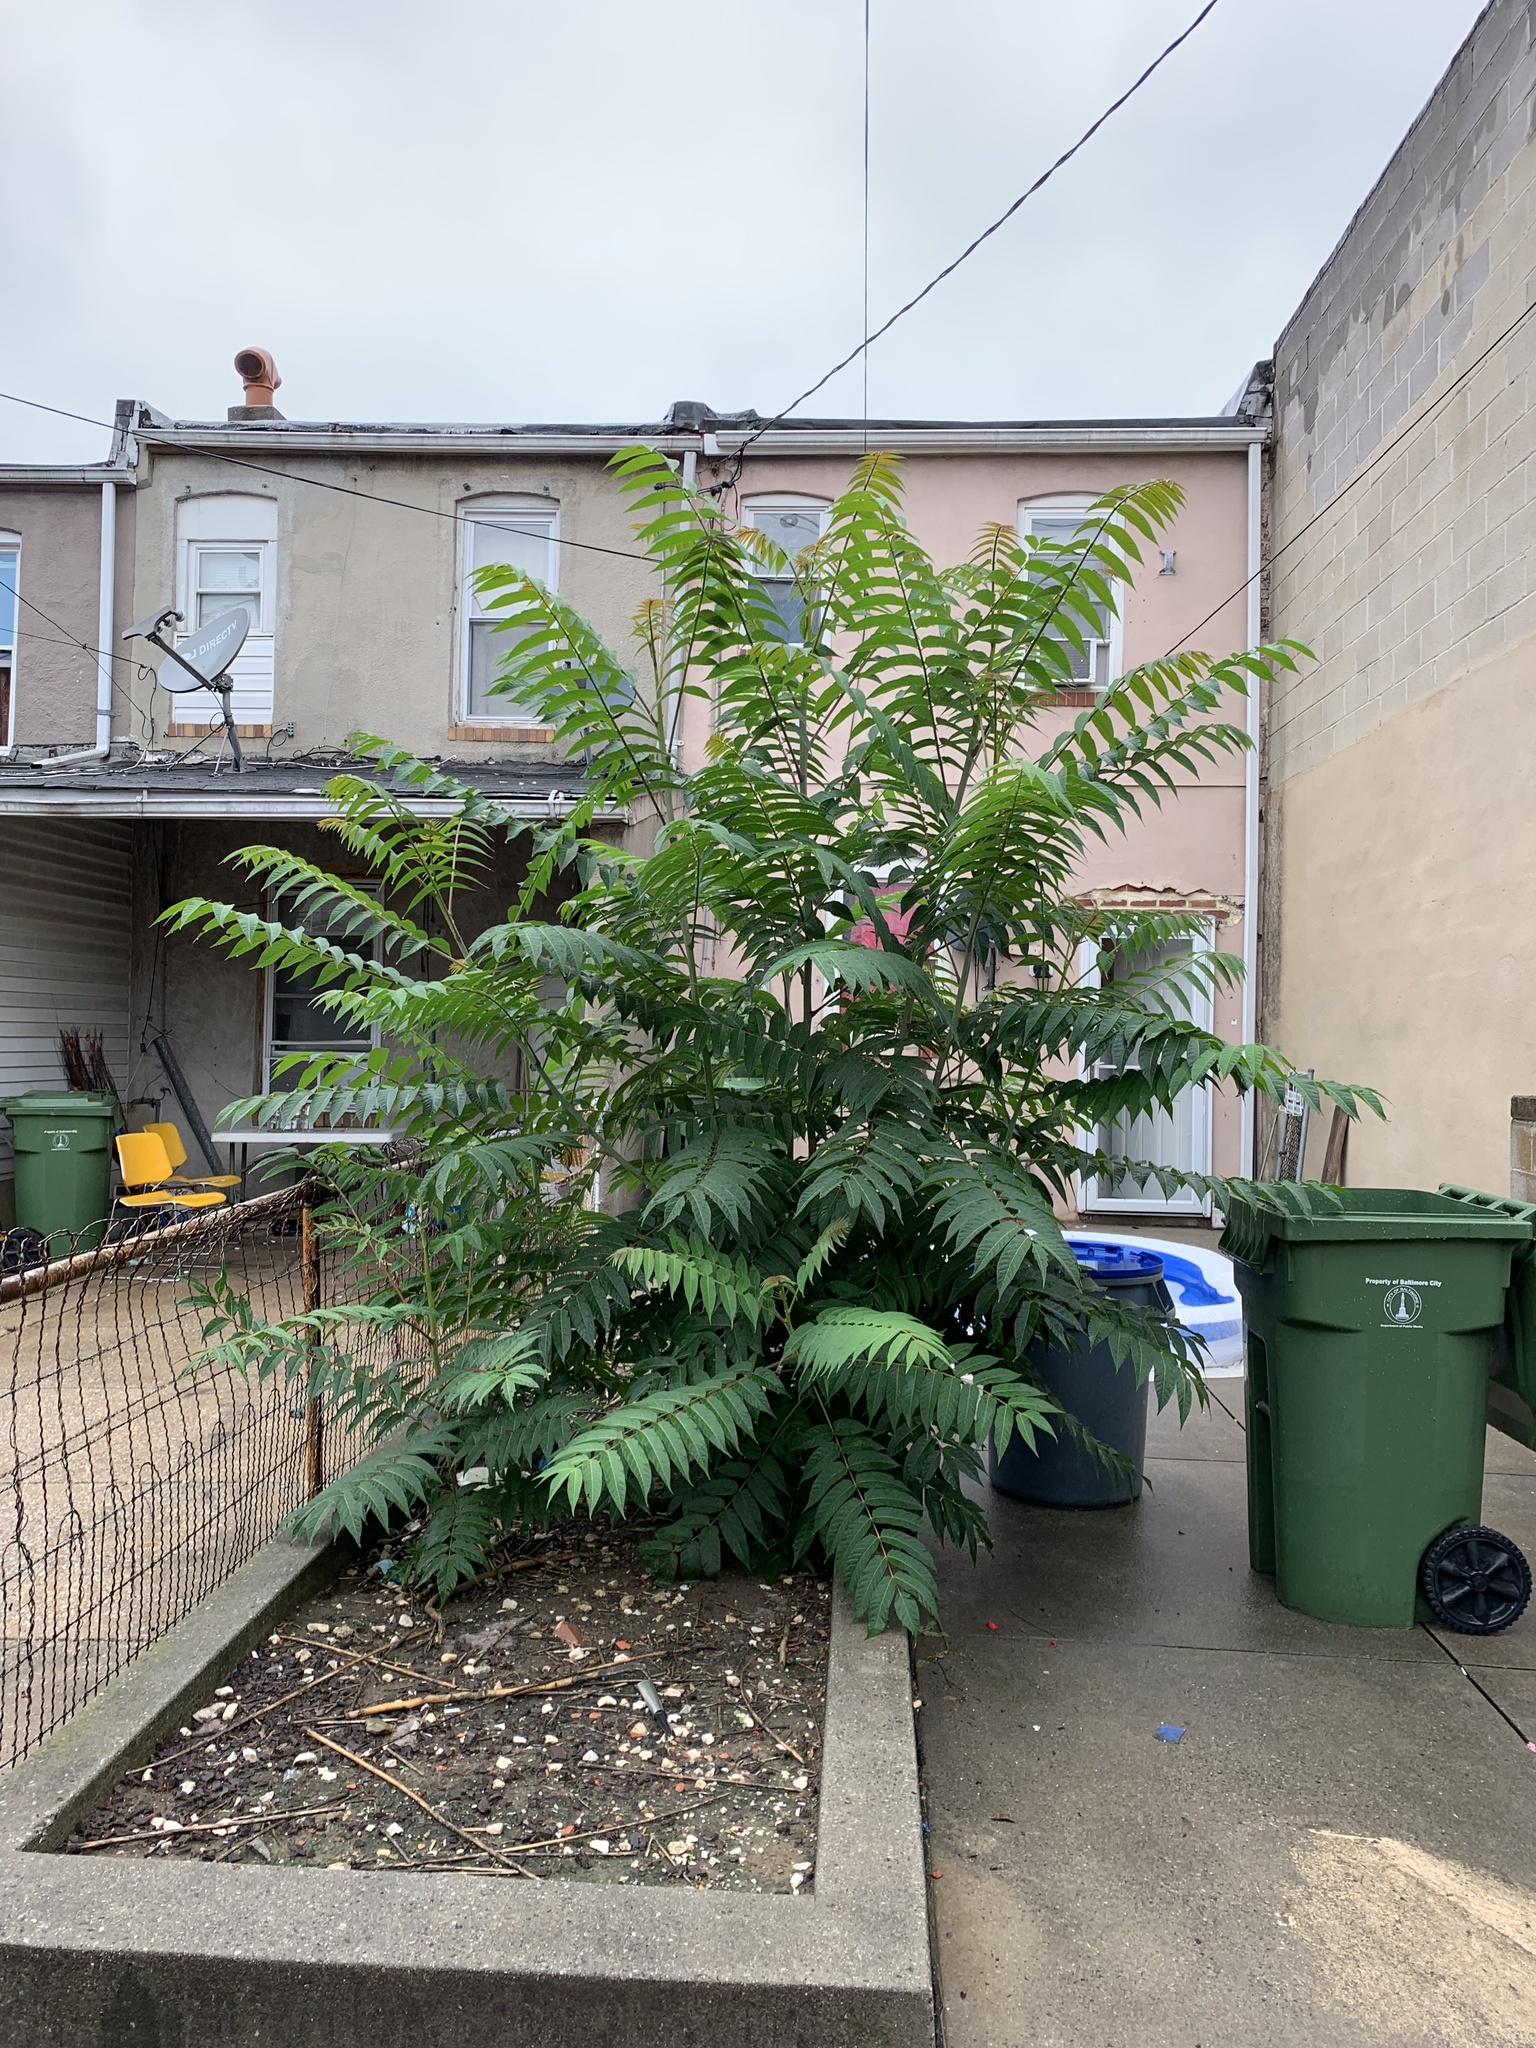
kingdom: Plantae
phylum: Tracheophyta
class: Magnoliopsida
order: Sapindales
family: Simaroubaceae
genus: Ailanthus
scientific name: Ailanthus altissima
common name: Tree-of-heaven
